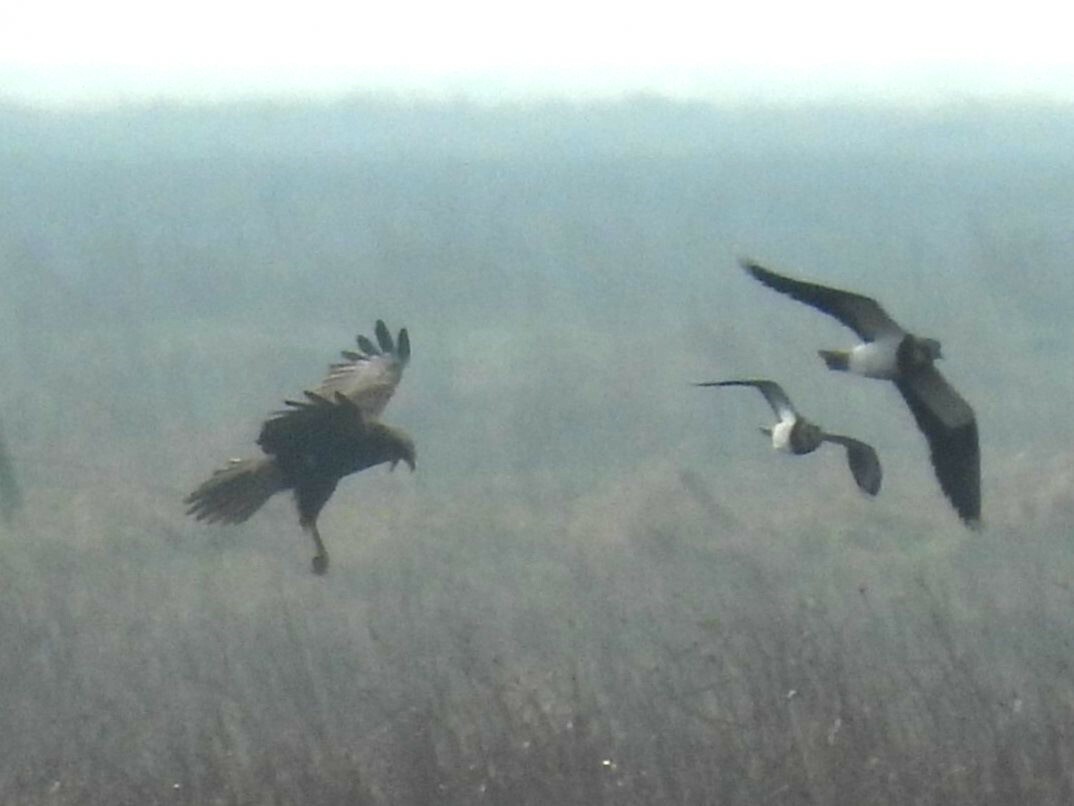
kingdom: Animalia
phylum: Chordata
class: Aves
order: Accipitriformes
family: Accipitridae
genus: Circus
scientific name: Circus aeruginosus
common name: Western marsh harrier
